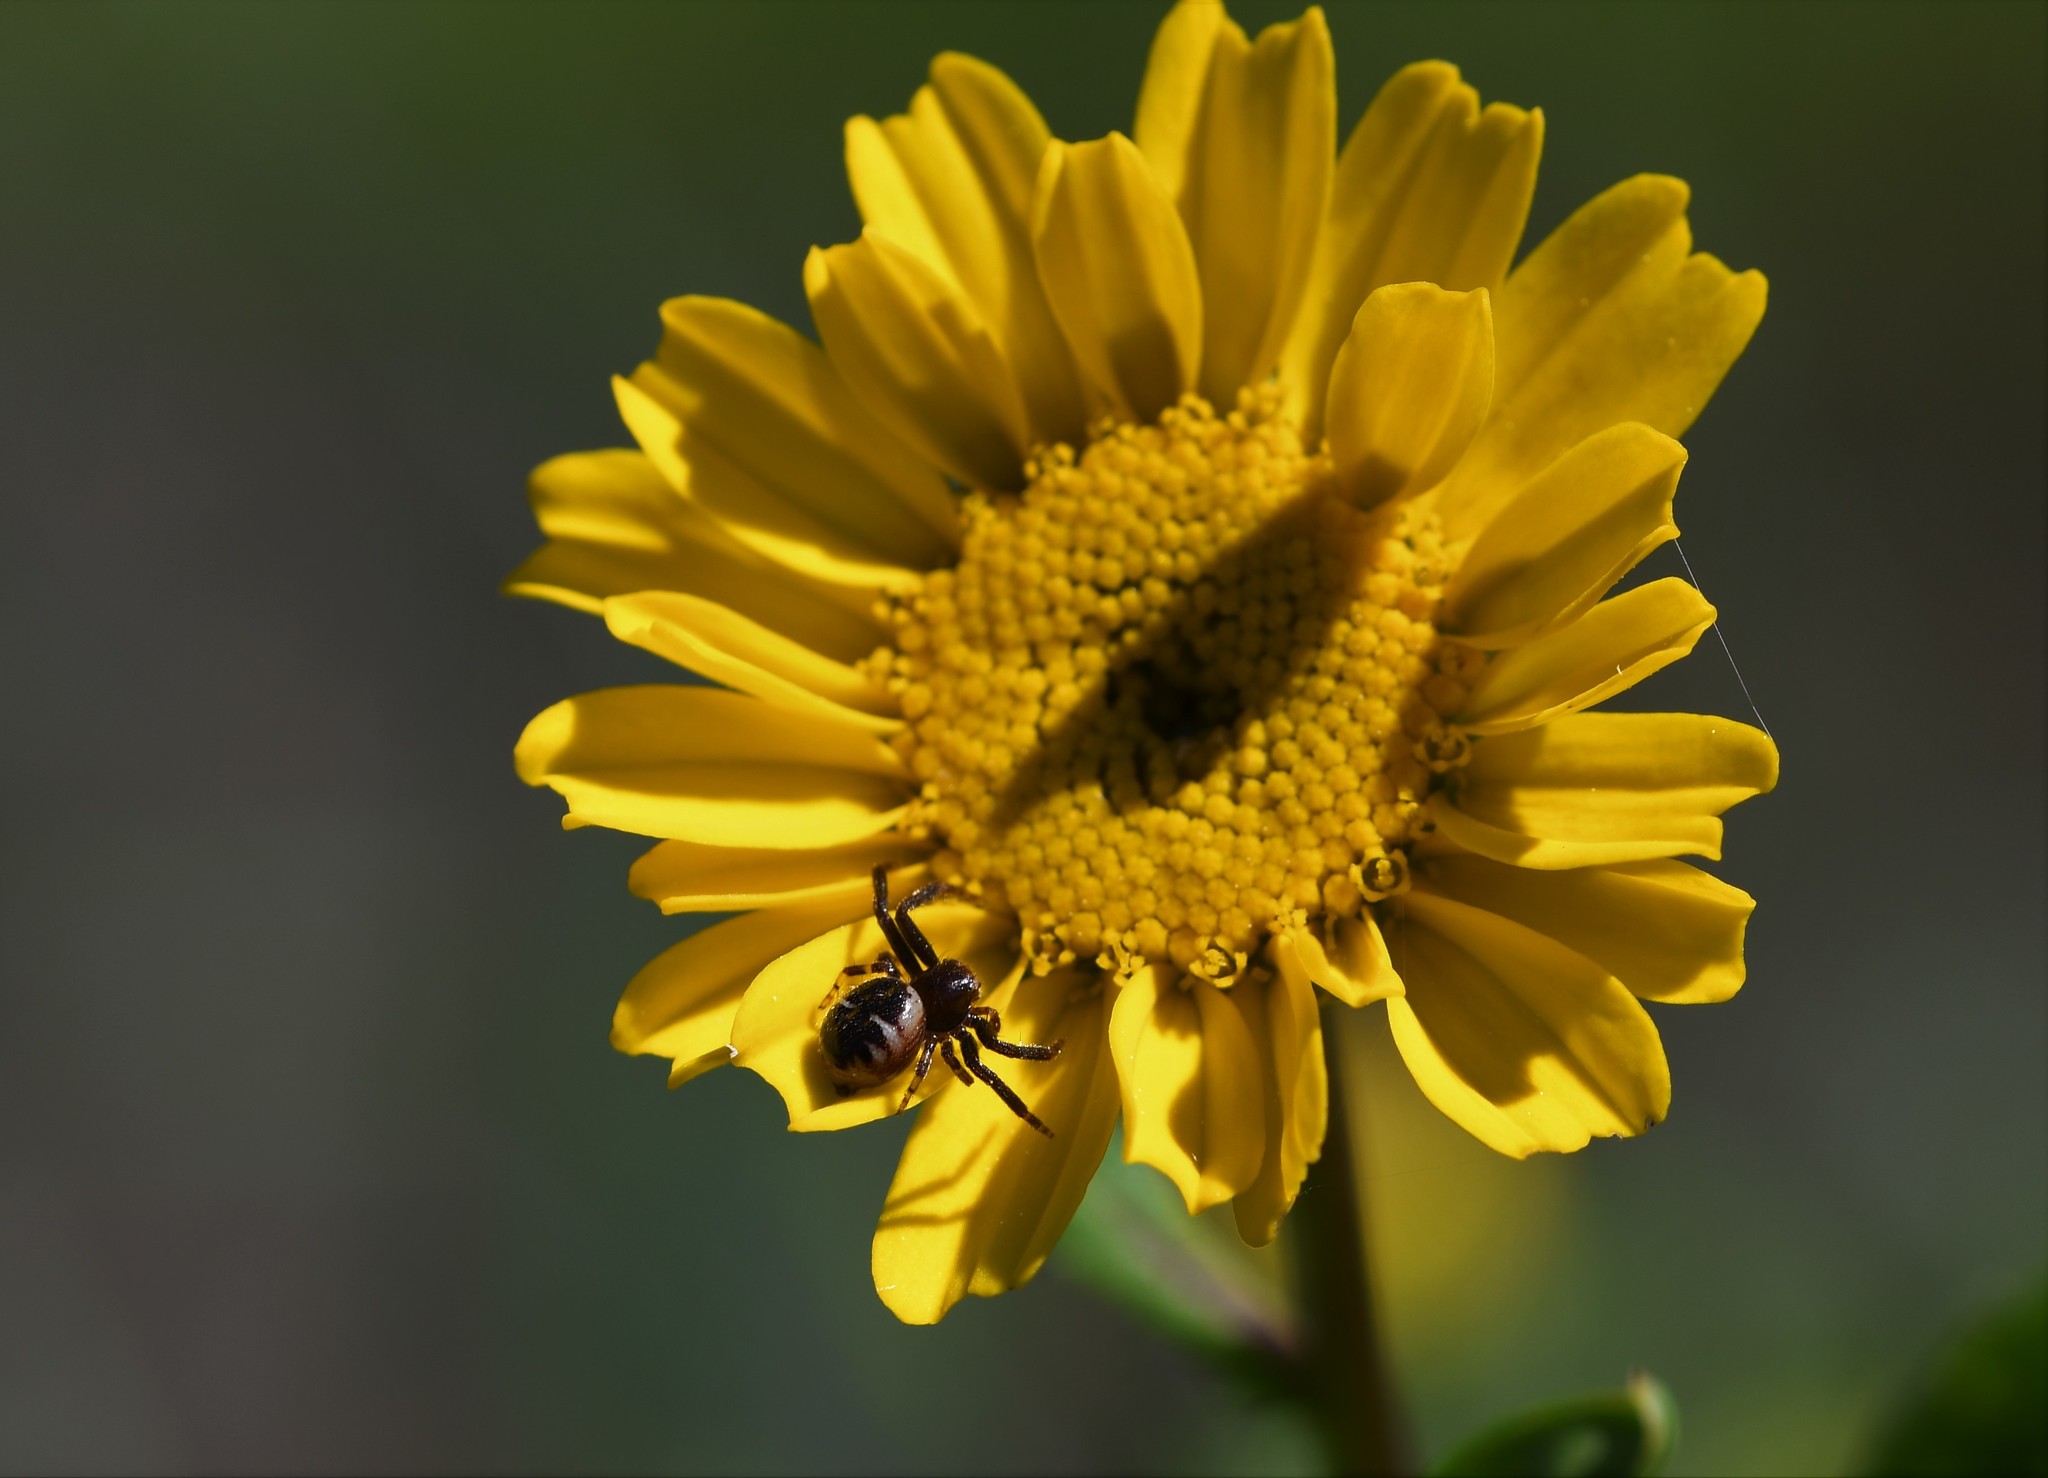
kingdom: Animalia
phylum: Arthropoda
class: Arachnida
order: Araneae
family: Thomisidae
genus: Synema
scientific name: Synema globosum
